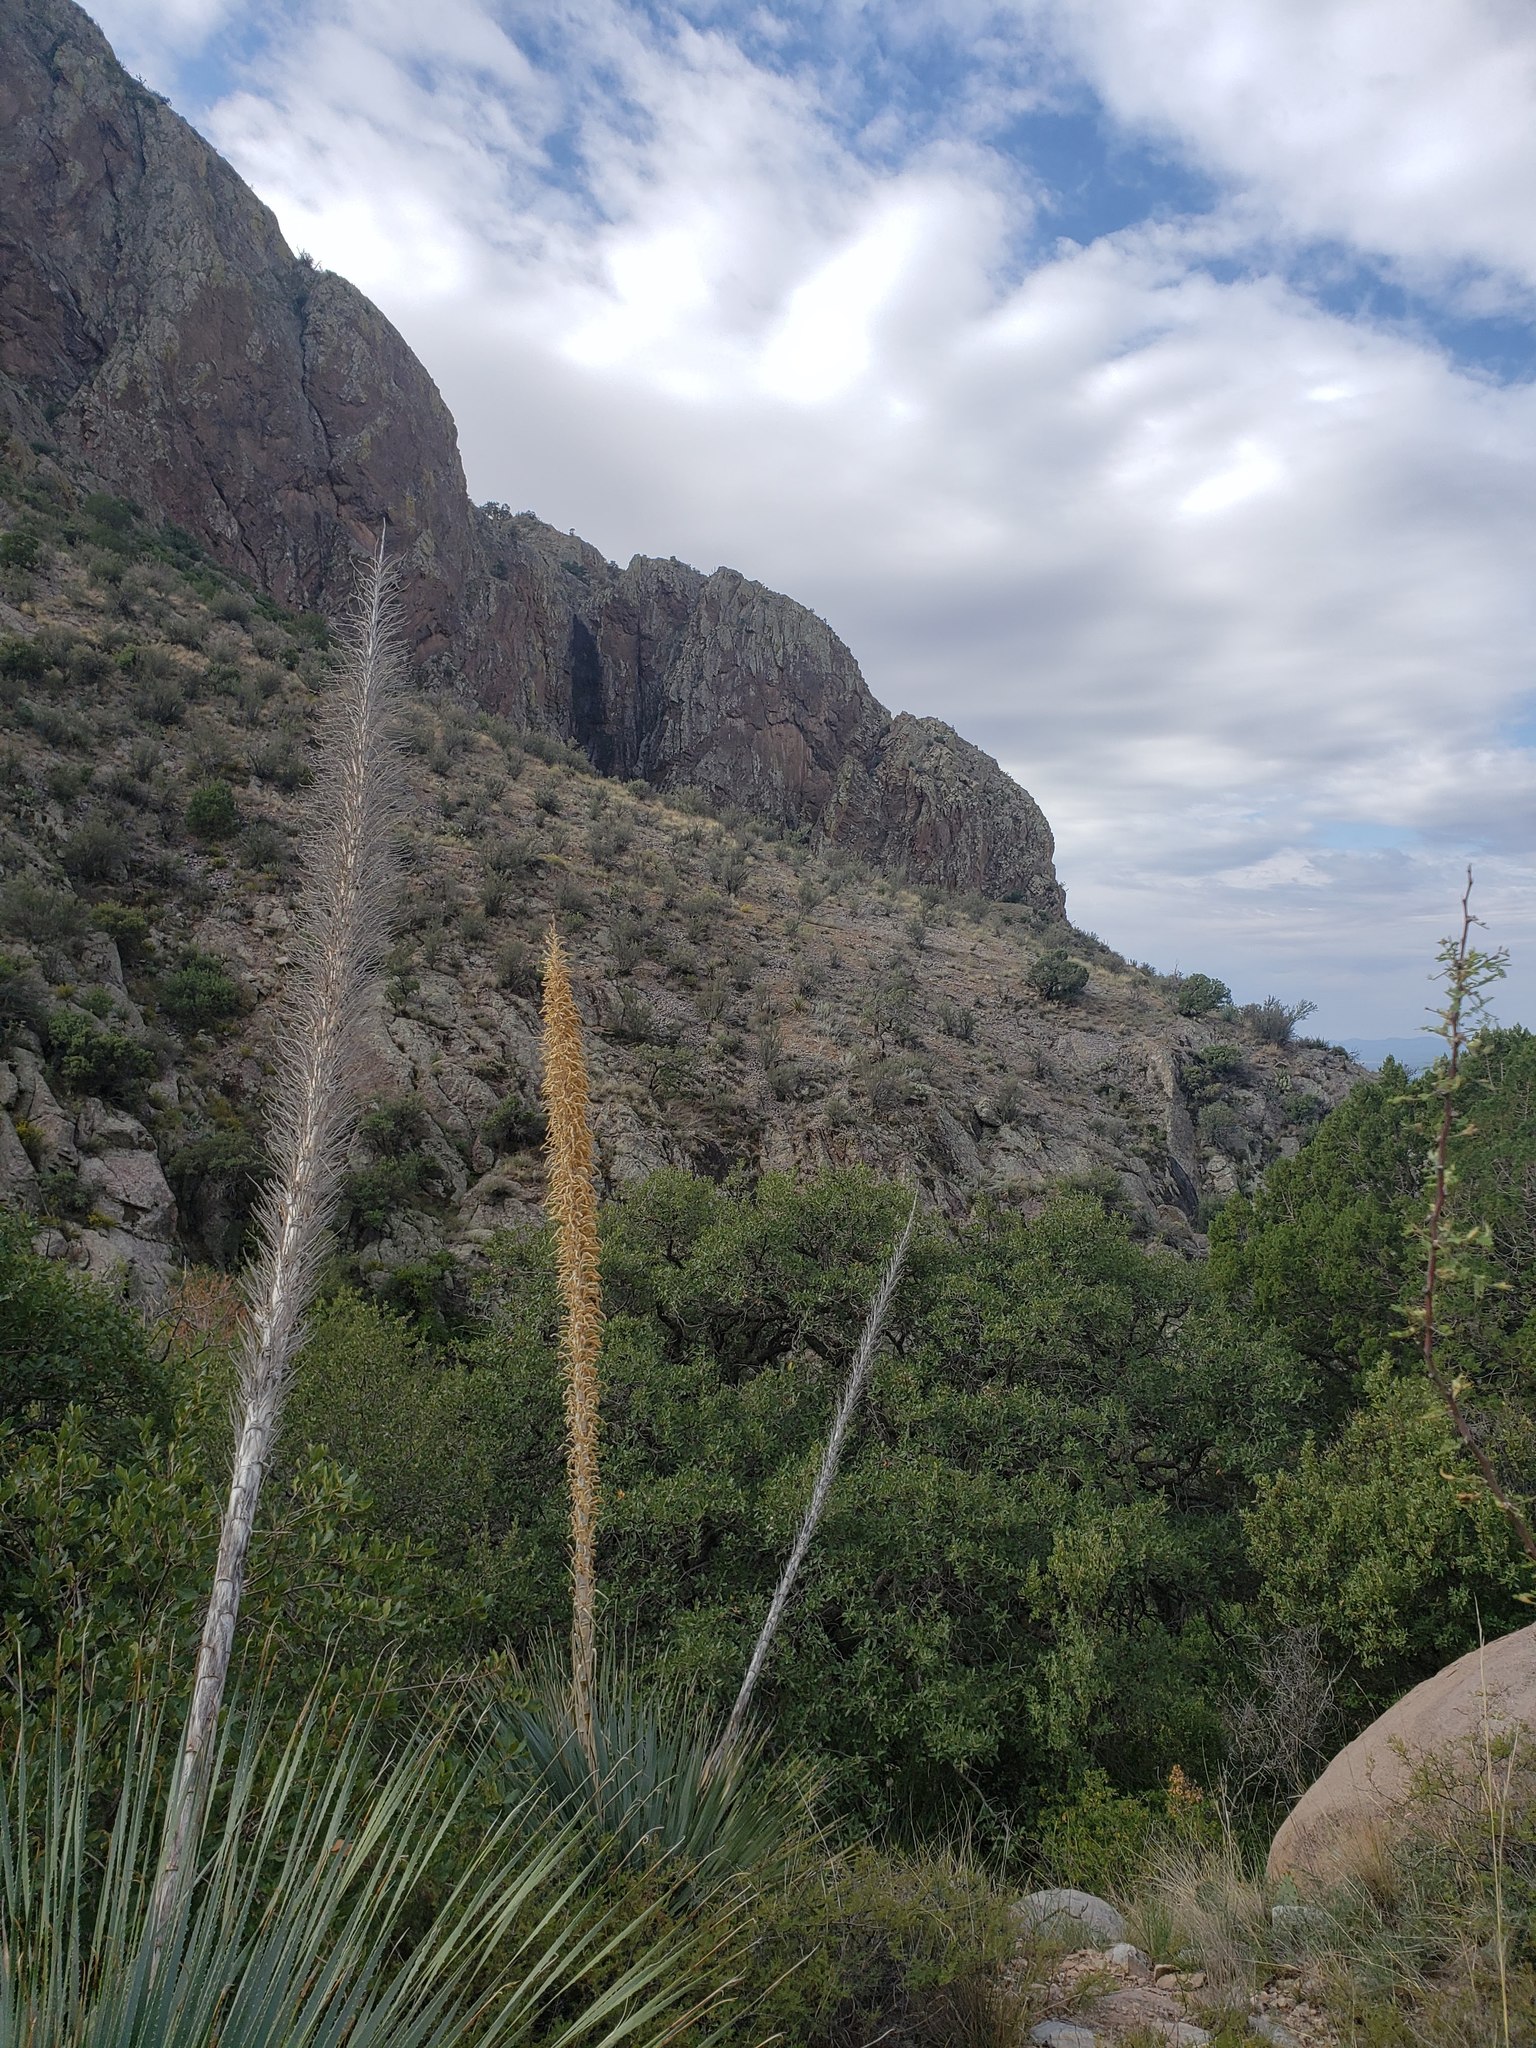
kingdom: Plantae
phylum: Tracheophyta
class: Liliopsida
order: Asparagales
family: Asparagaceae
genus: Dasylirion
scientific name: Dasylirion wheeleri
